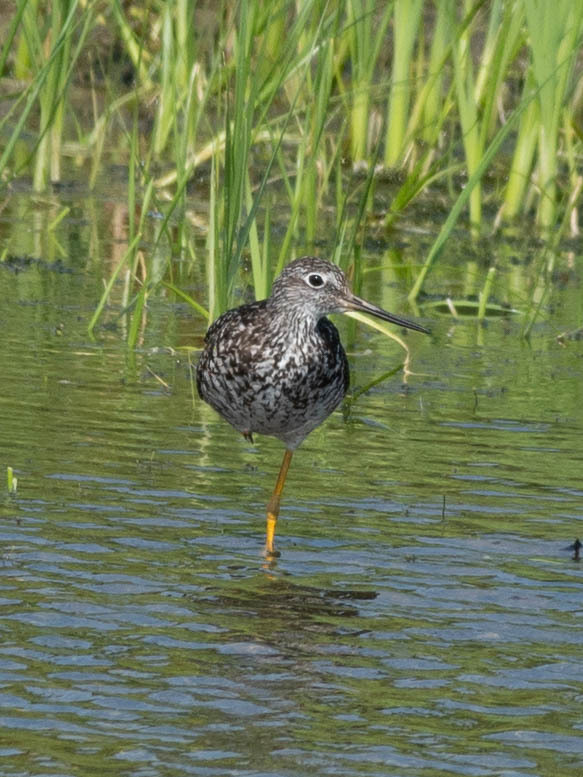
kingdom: Animalia
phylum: Chordata
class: Aves
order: Charadriiformes
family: Scolopacidae
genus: Tringa
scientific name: Tringa melanoleuca
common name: Greater yellowlegs
